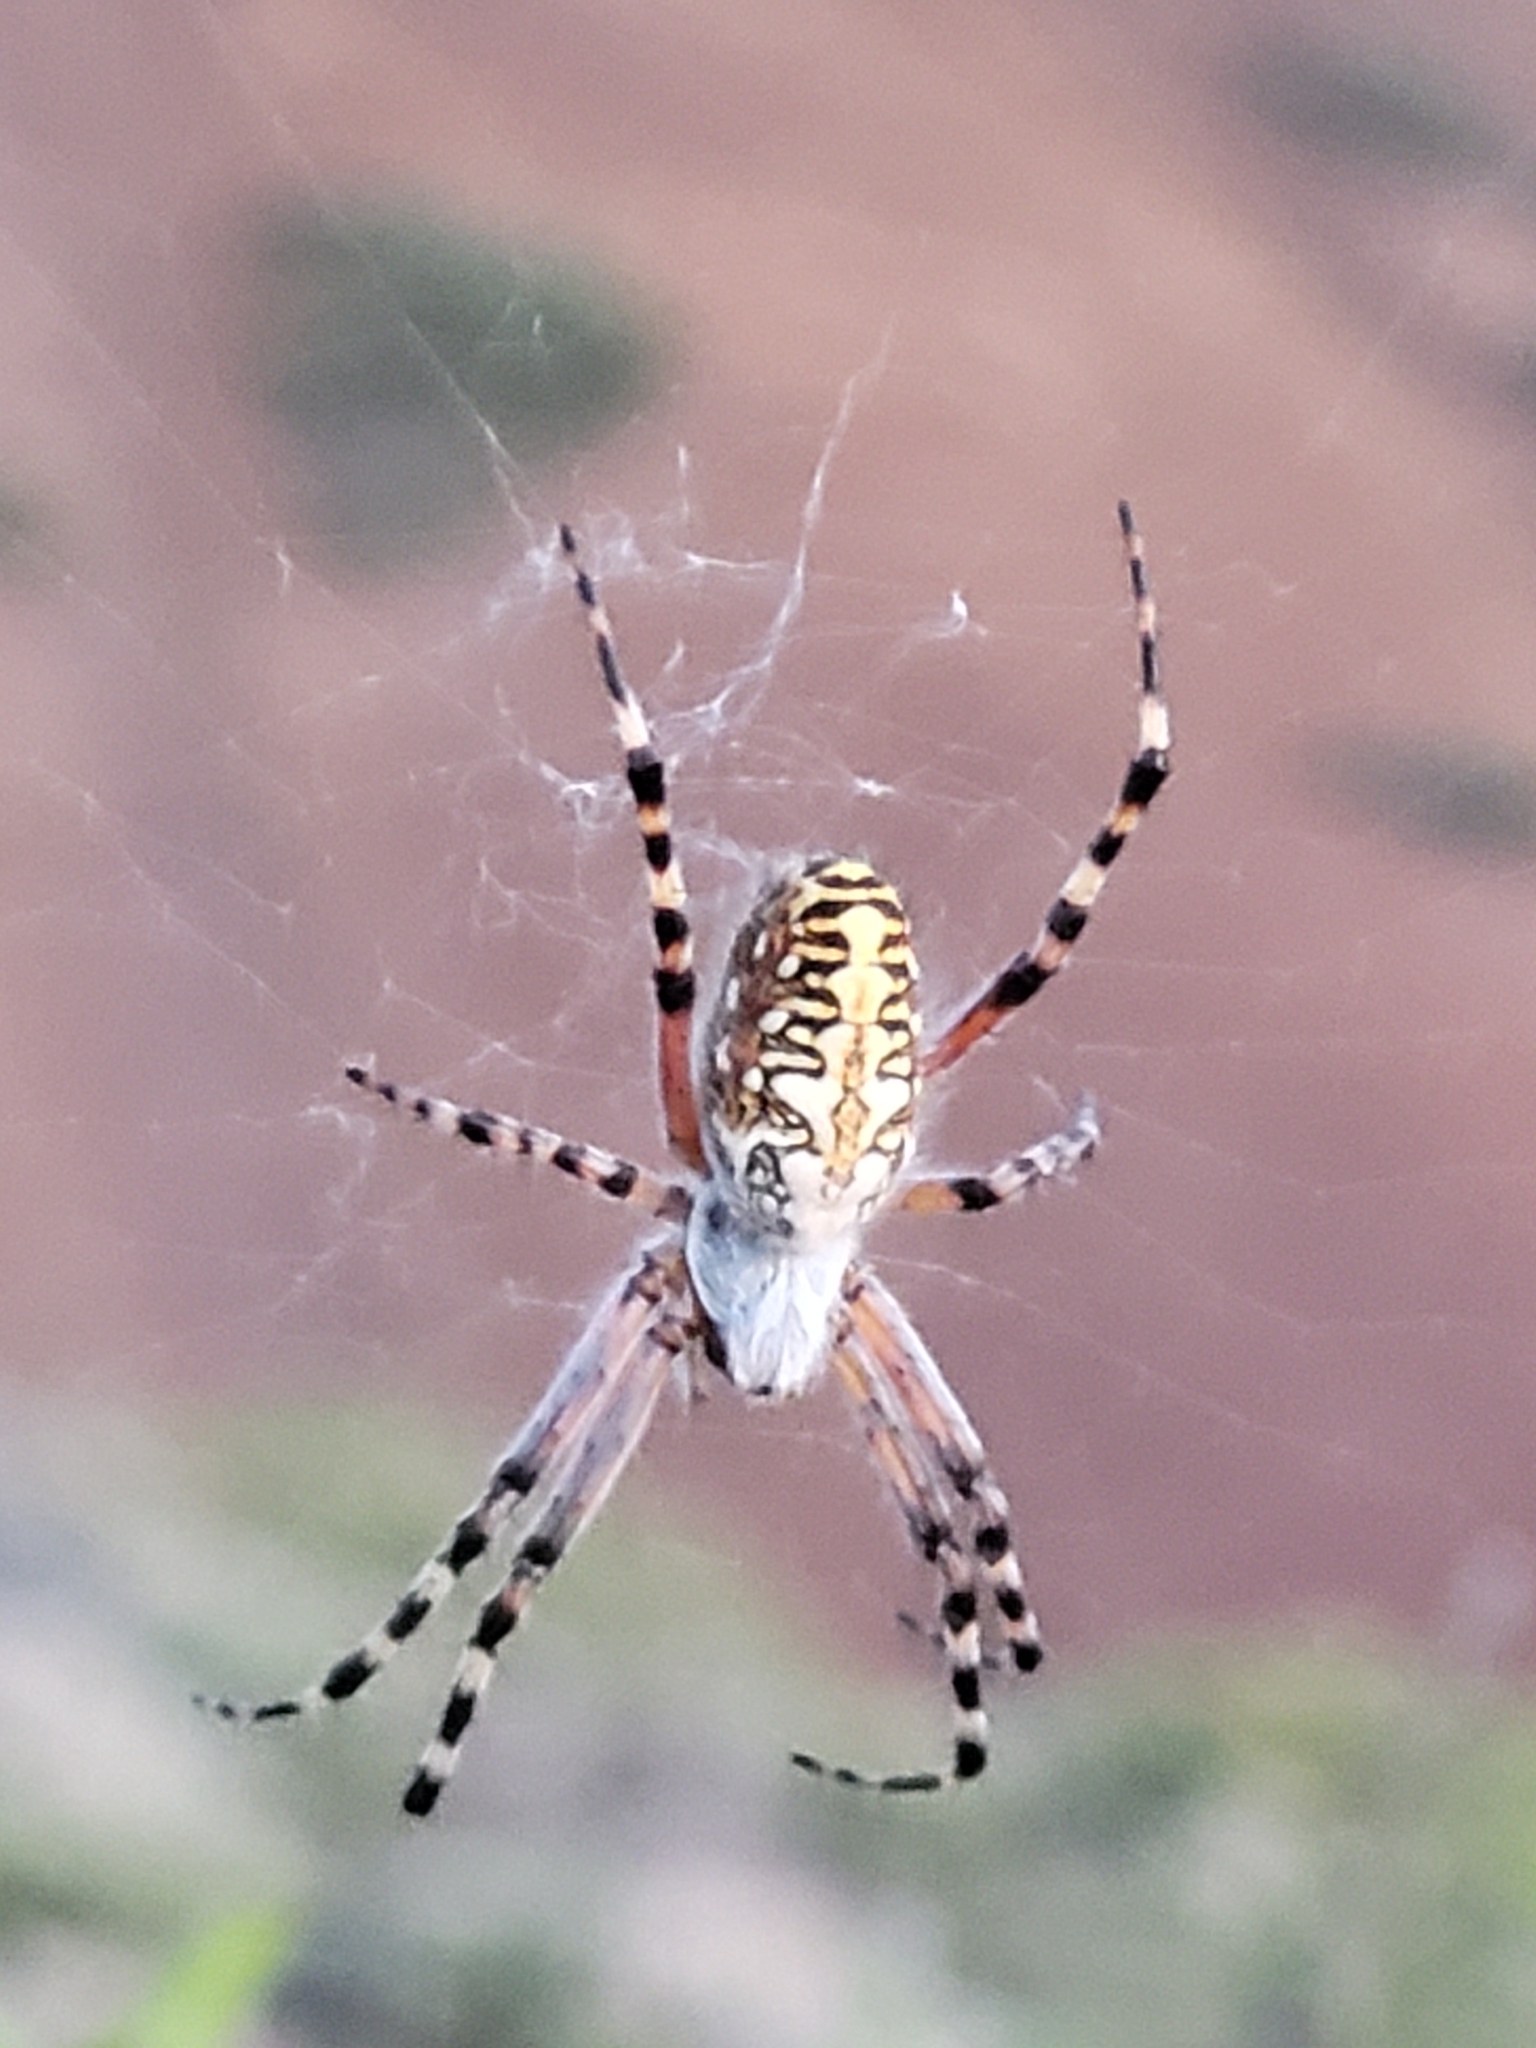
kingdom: Animalia
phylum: Arthropoda
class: Arachnida
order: Araneae
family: Araneidae
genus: Araneus
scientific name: Araneus annulipes
